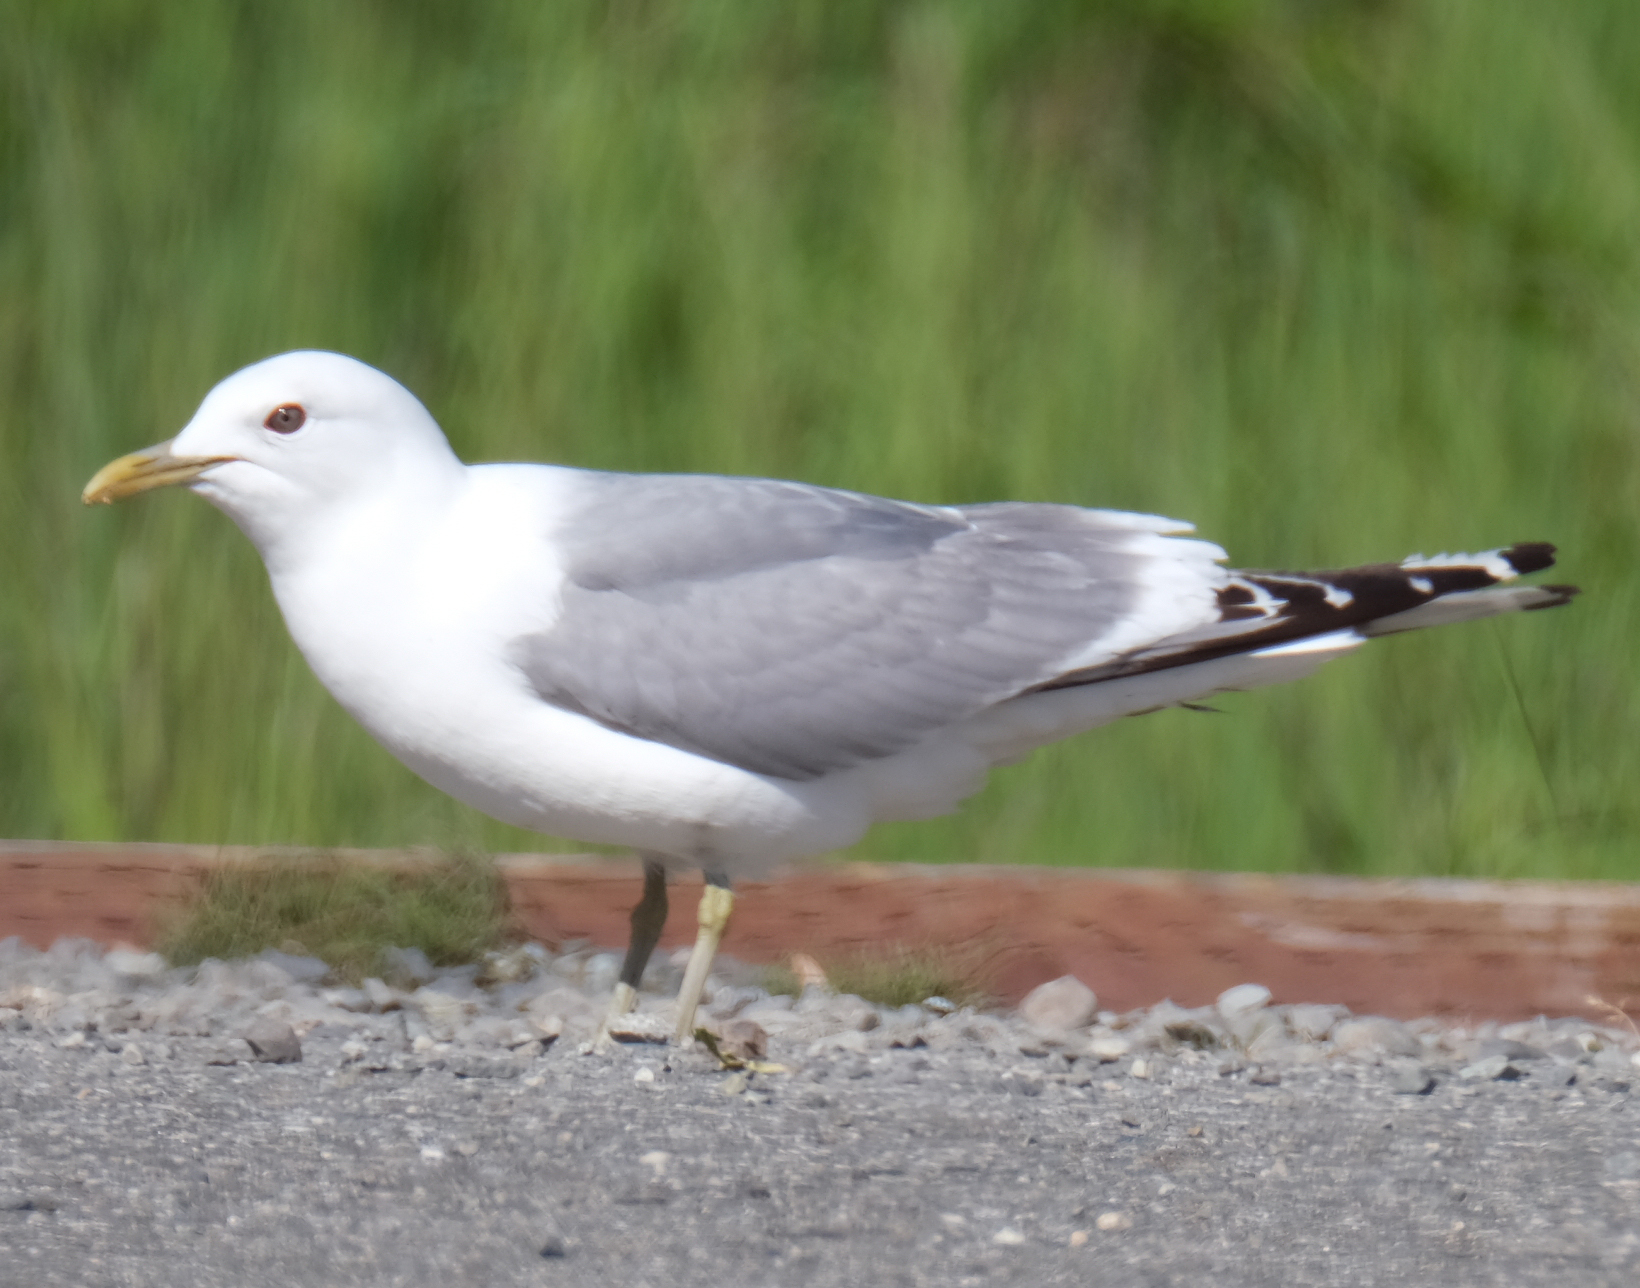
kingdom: Animalia
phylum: Chordata
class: Aves
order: Charadriiformes
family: Laridae
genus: Larus
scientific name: Larus brachyrhynchus
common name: Short-billed gull
